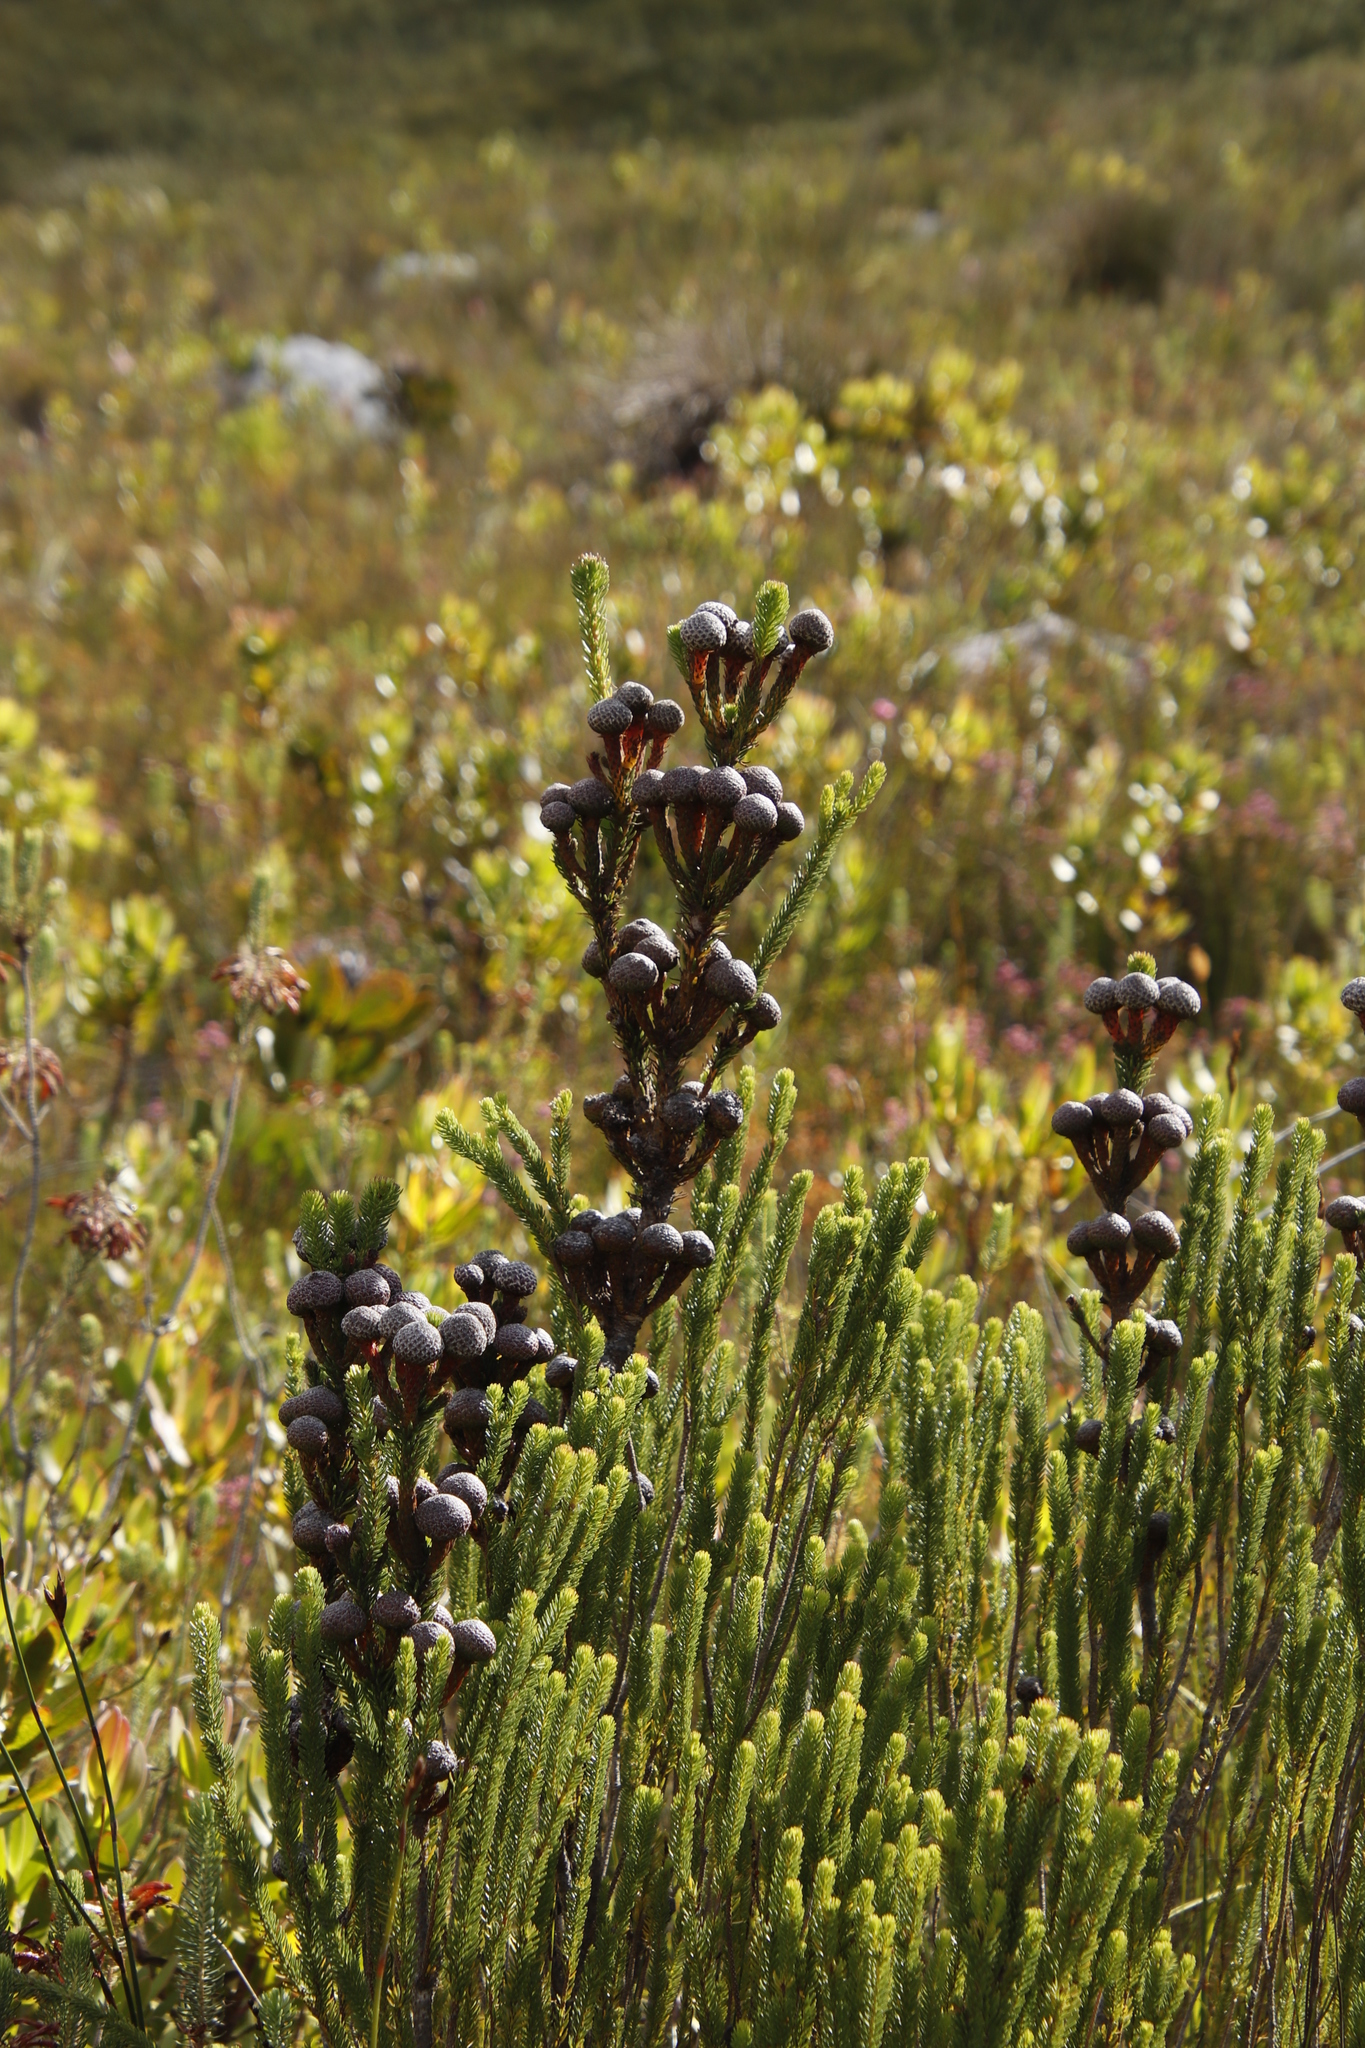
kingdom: Plantae
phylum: Tracheophyta
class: Magnoliopsida
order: Bruniales
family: Bruniaceae
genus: Berzelia
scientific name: Berzelia stokoei
